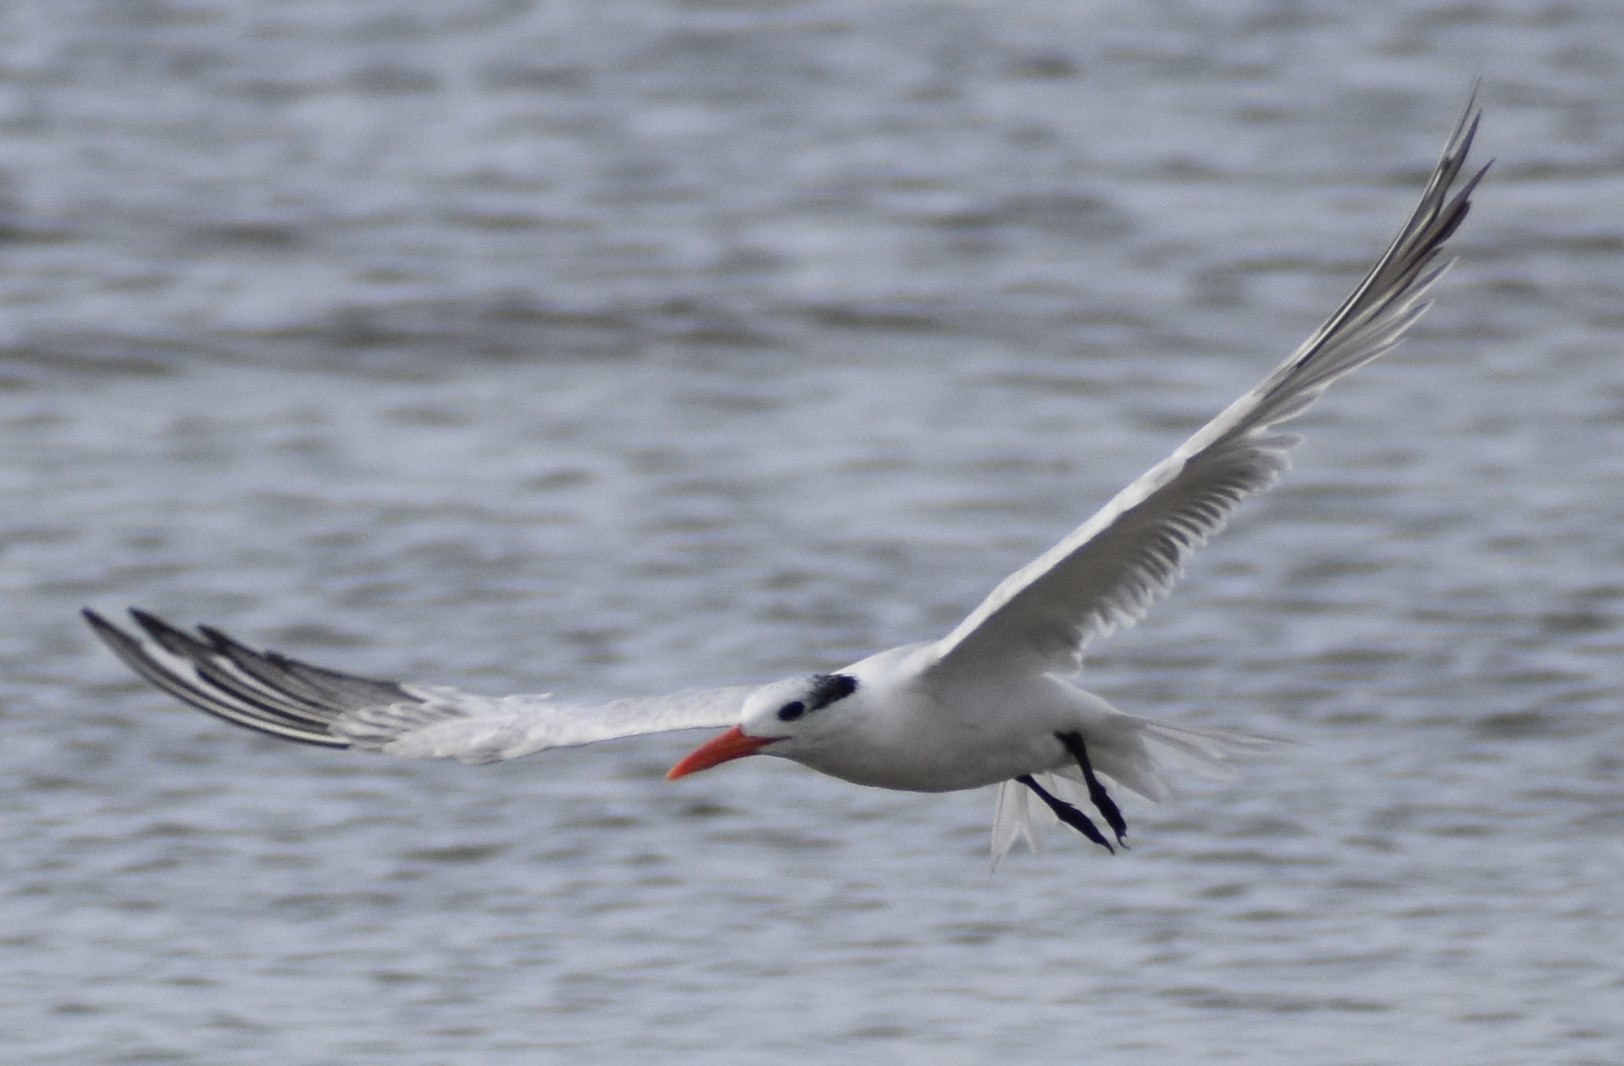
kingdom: Animalia
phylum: Chordata
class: Aves
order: Charadriiformes
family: Laridae
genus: Thalasseus
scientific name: Thalasseus maximus
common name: Royal tern
